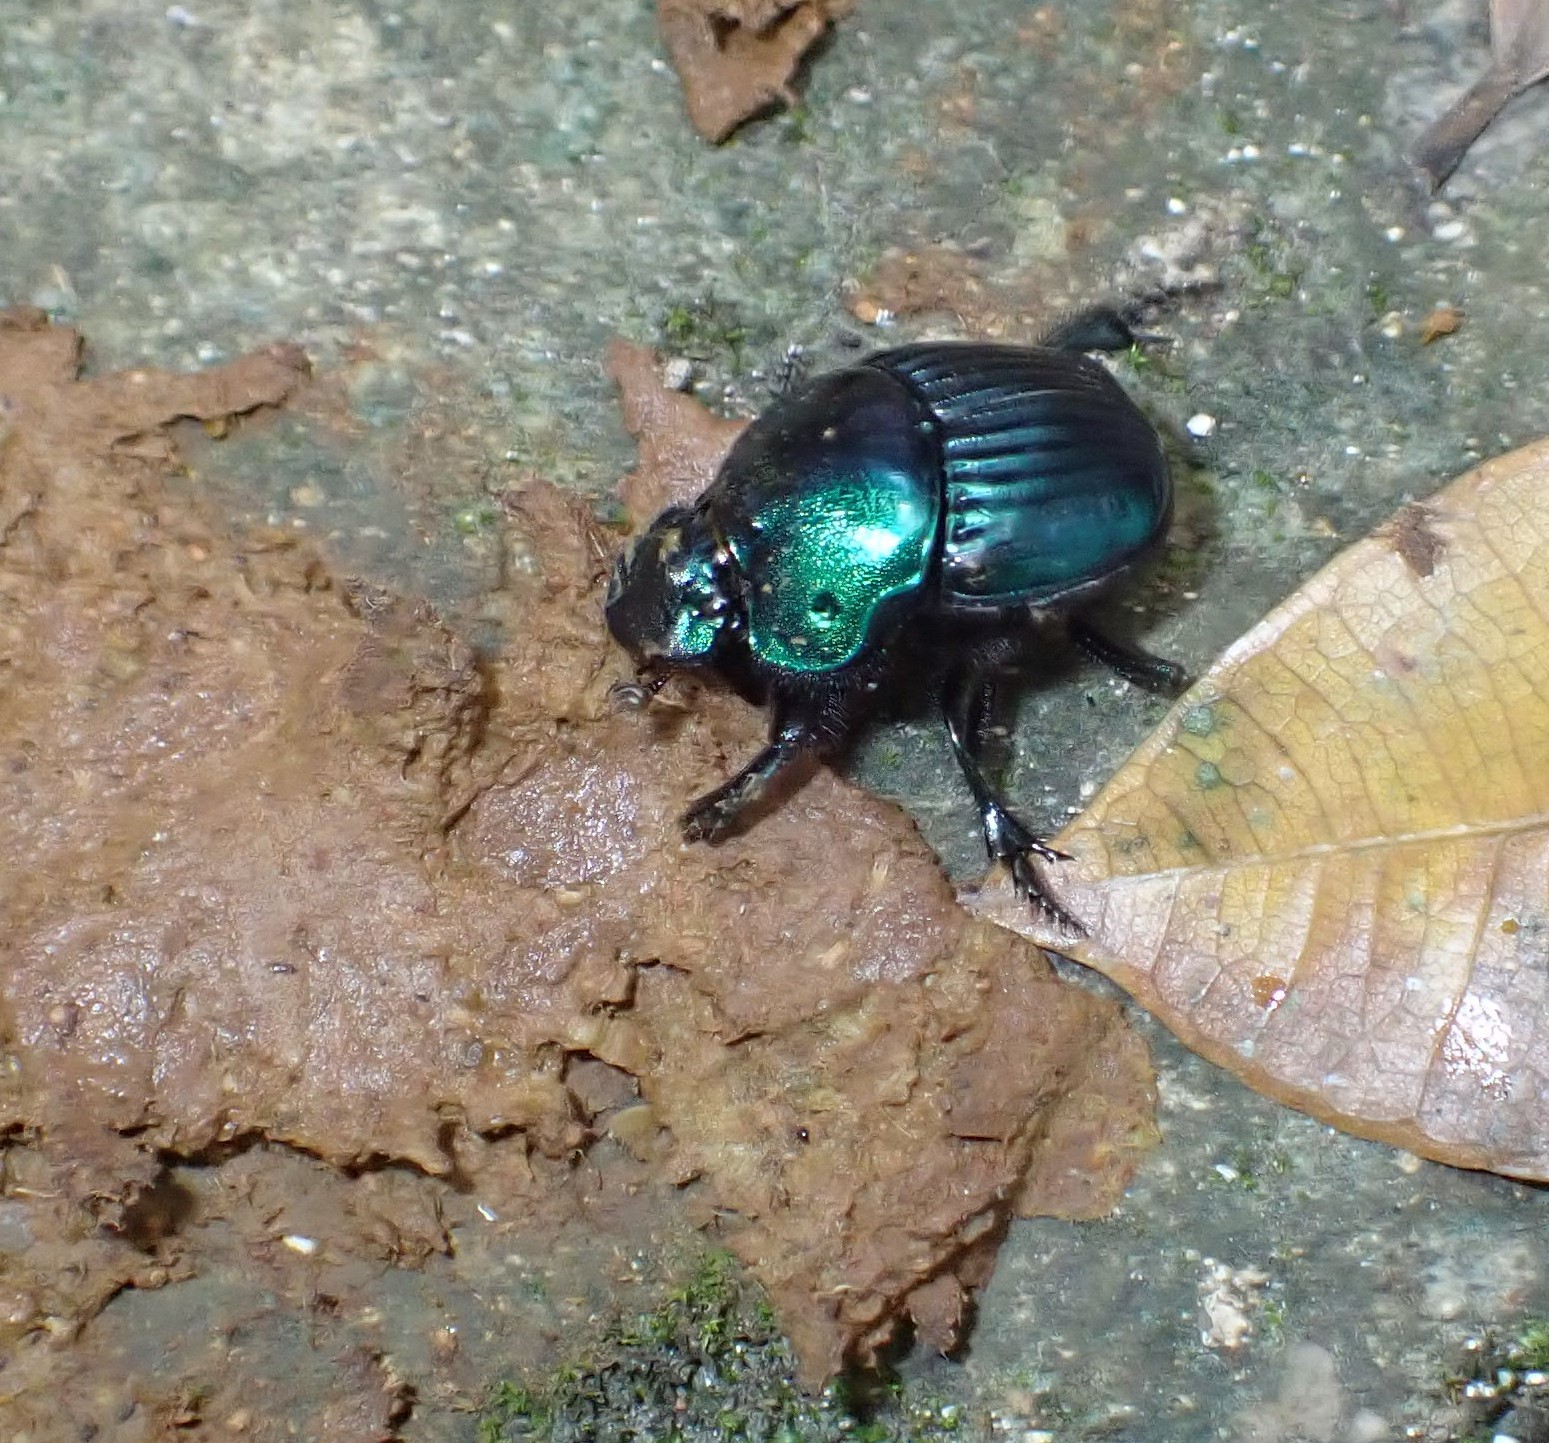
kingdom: Animalia
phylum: Arthropoda
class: Insecta
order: Coleoptera
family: Scarabaeidae
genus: Phanaeus
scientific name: Phanaeus pilatei
